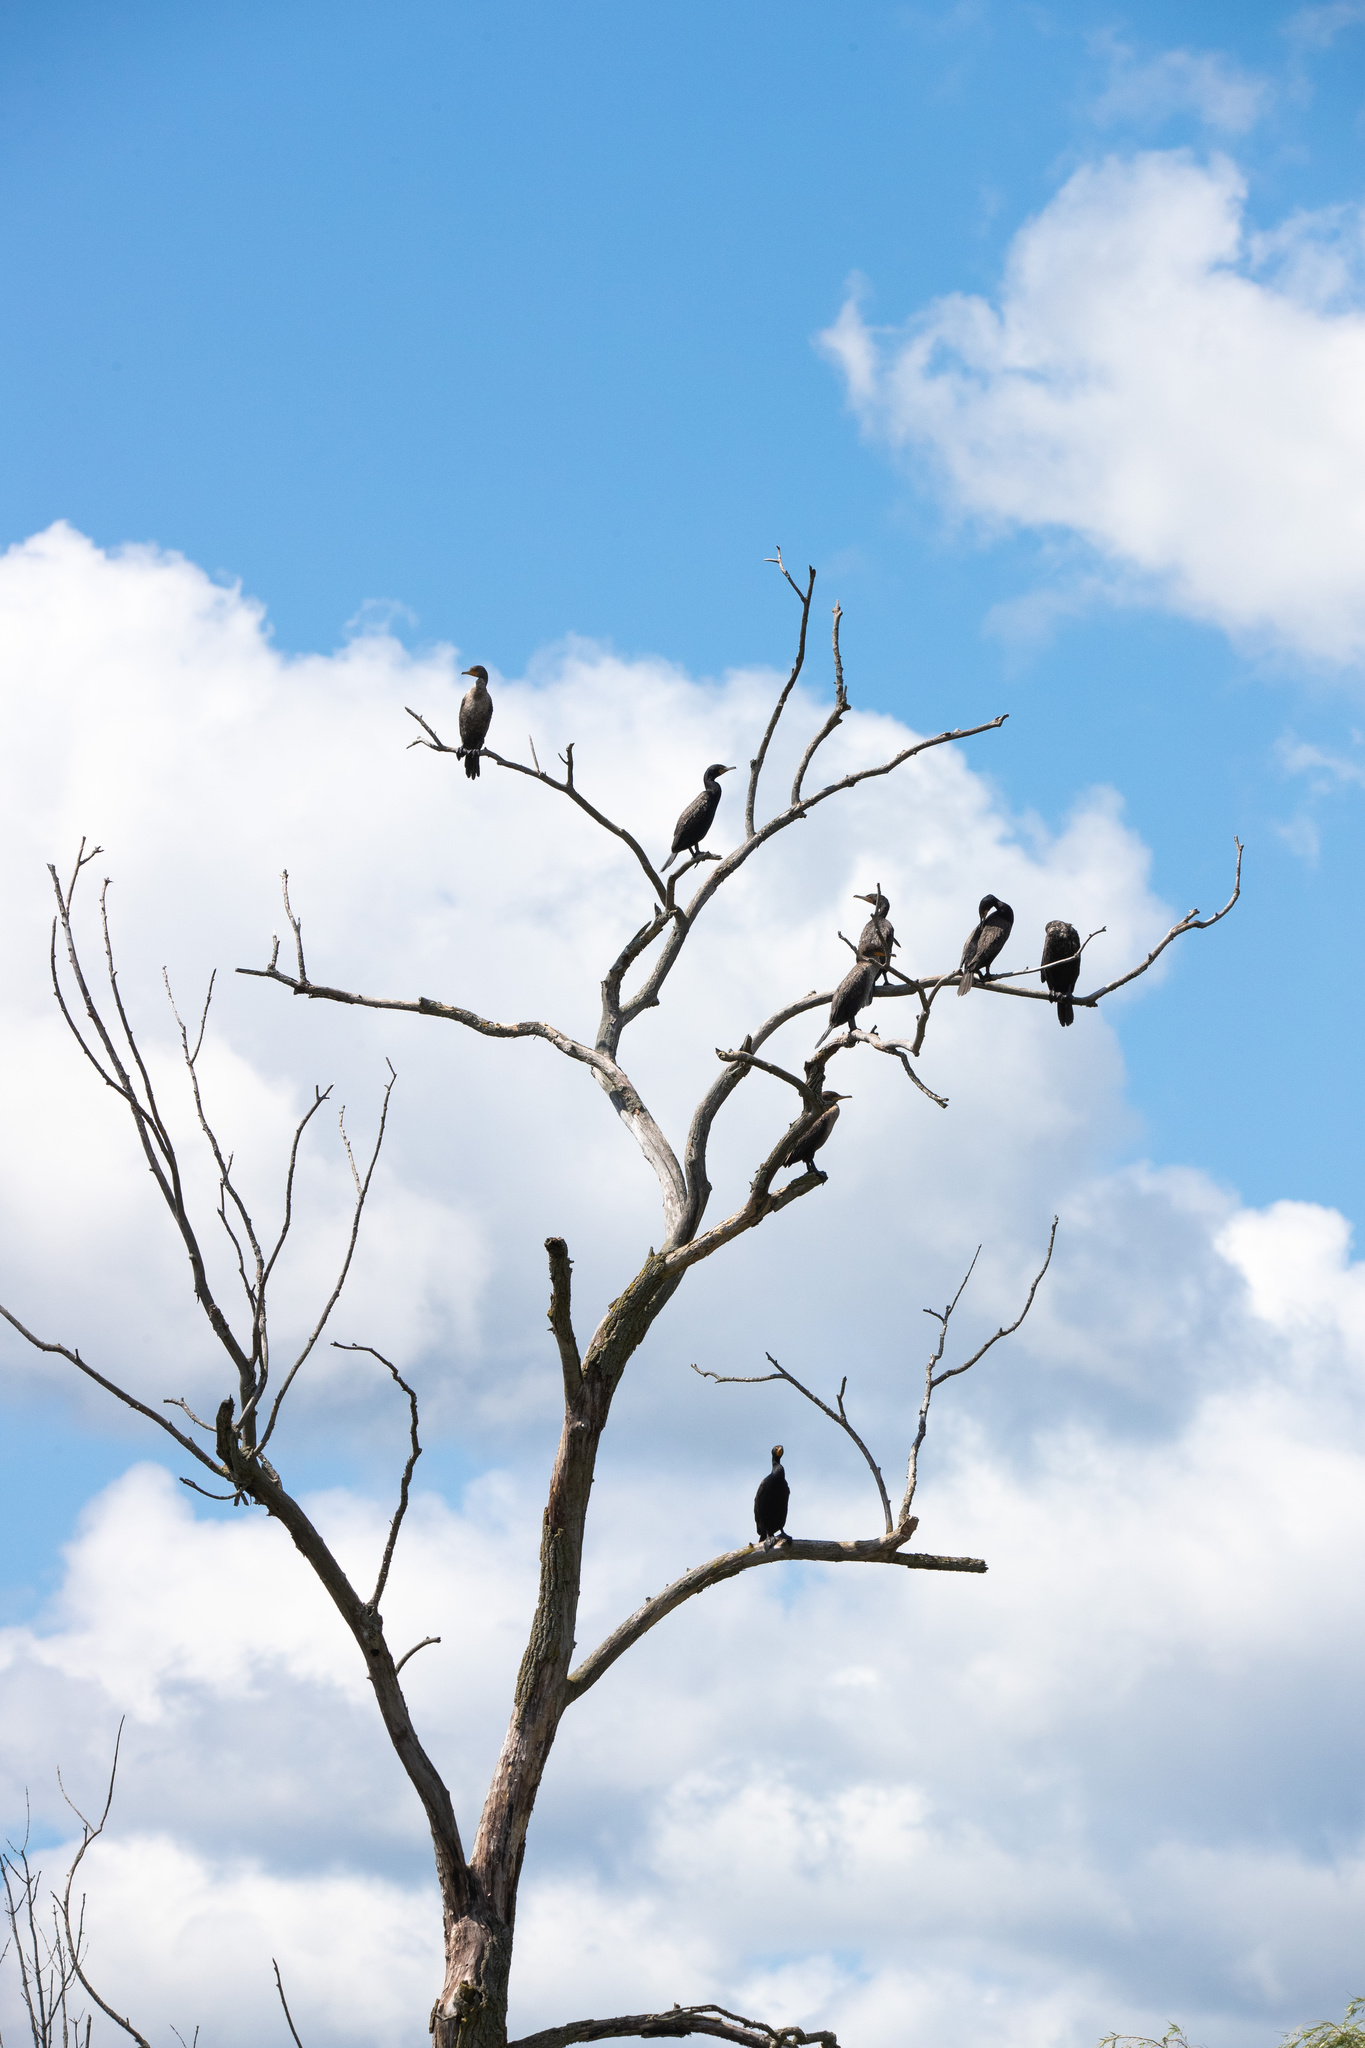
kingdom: Animalia
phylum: Chordata
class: Aves
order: Suliformes
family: Phalacrocoracidae
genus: Phalacrocorax
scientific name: Phalacrocorax auritus
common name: Double-crested cormorant
